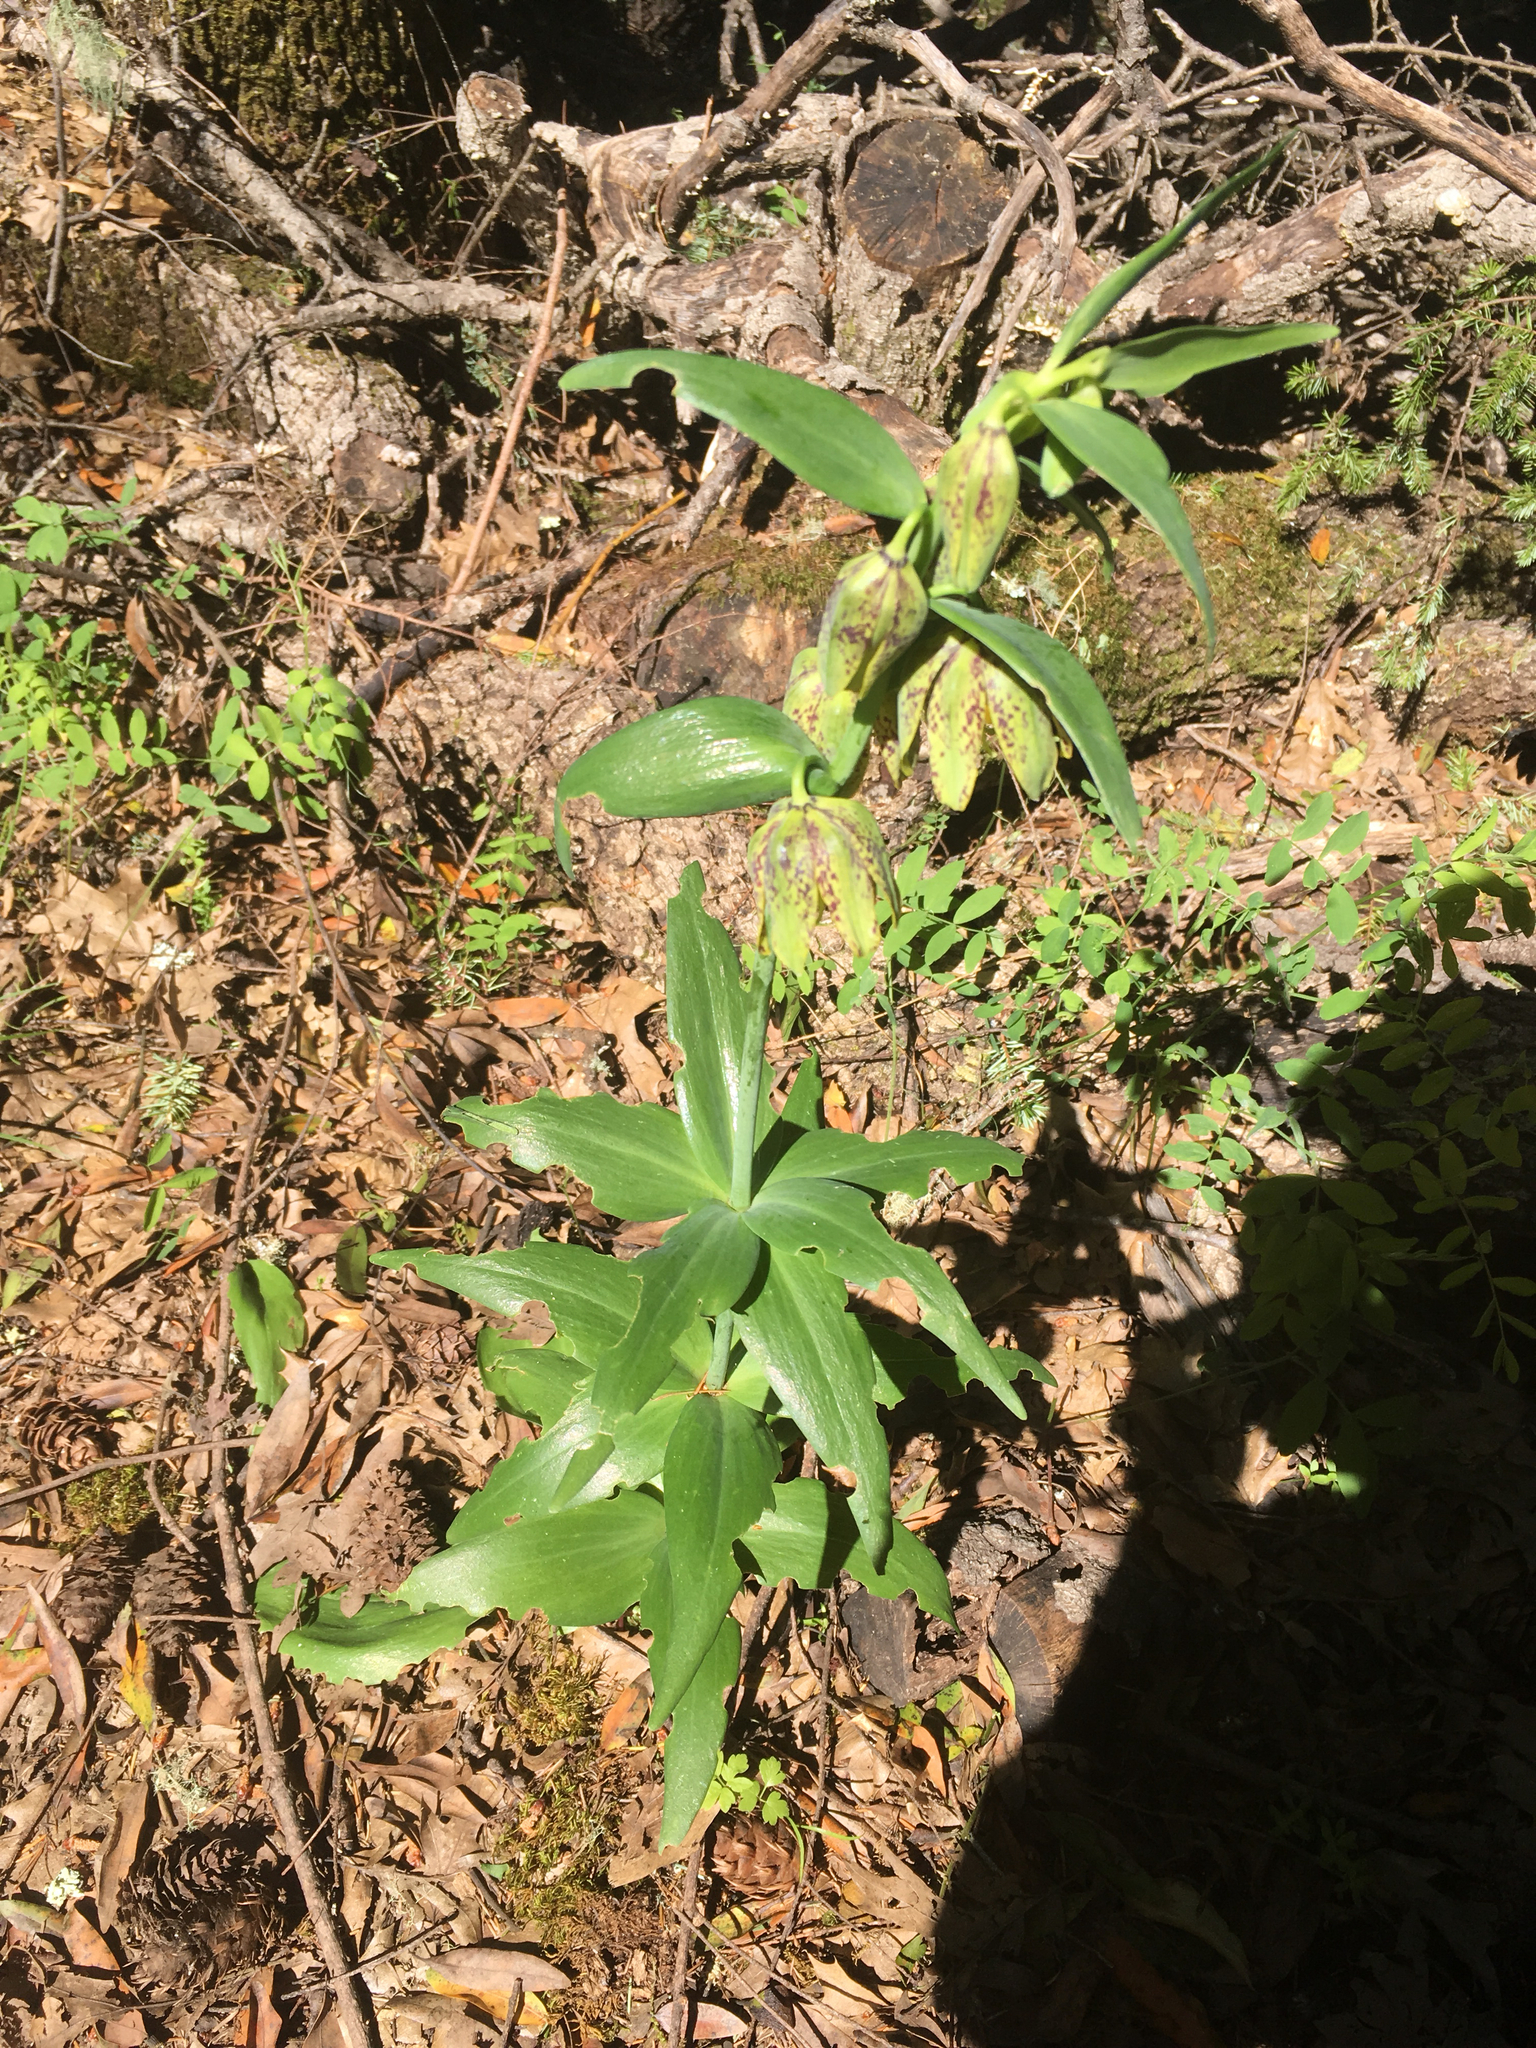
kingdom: Plantae
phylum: Tracheophyta
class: Liliopsida
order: Liliales
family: Liliaceae
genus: Fritillaria
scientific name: Fritillaria affinis
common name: Ojai fritillary
